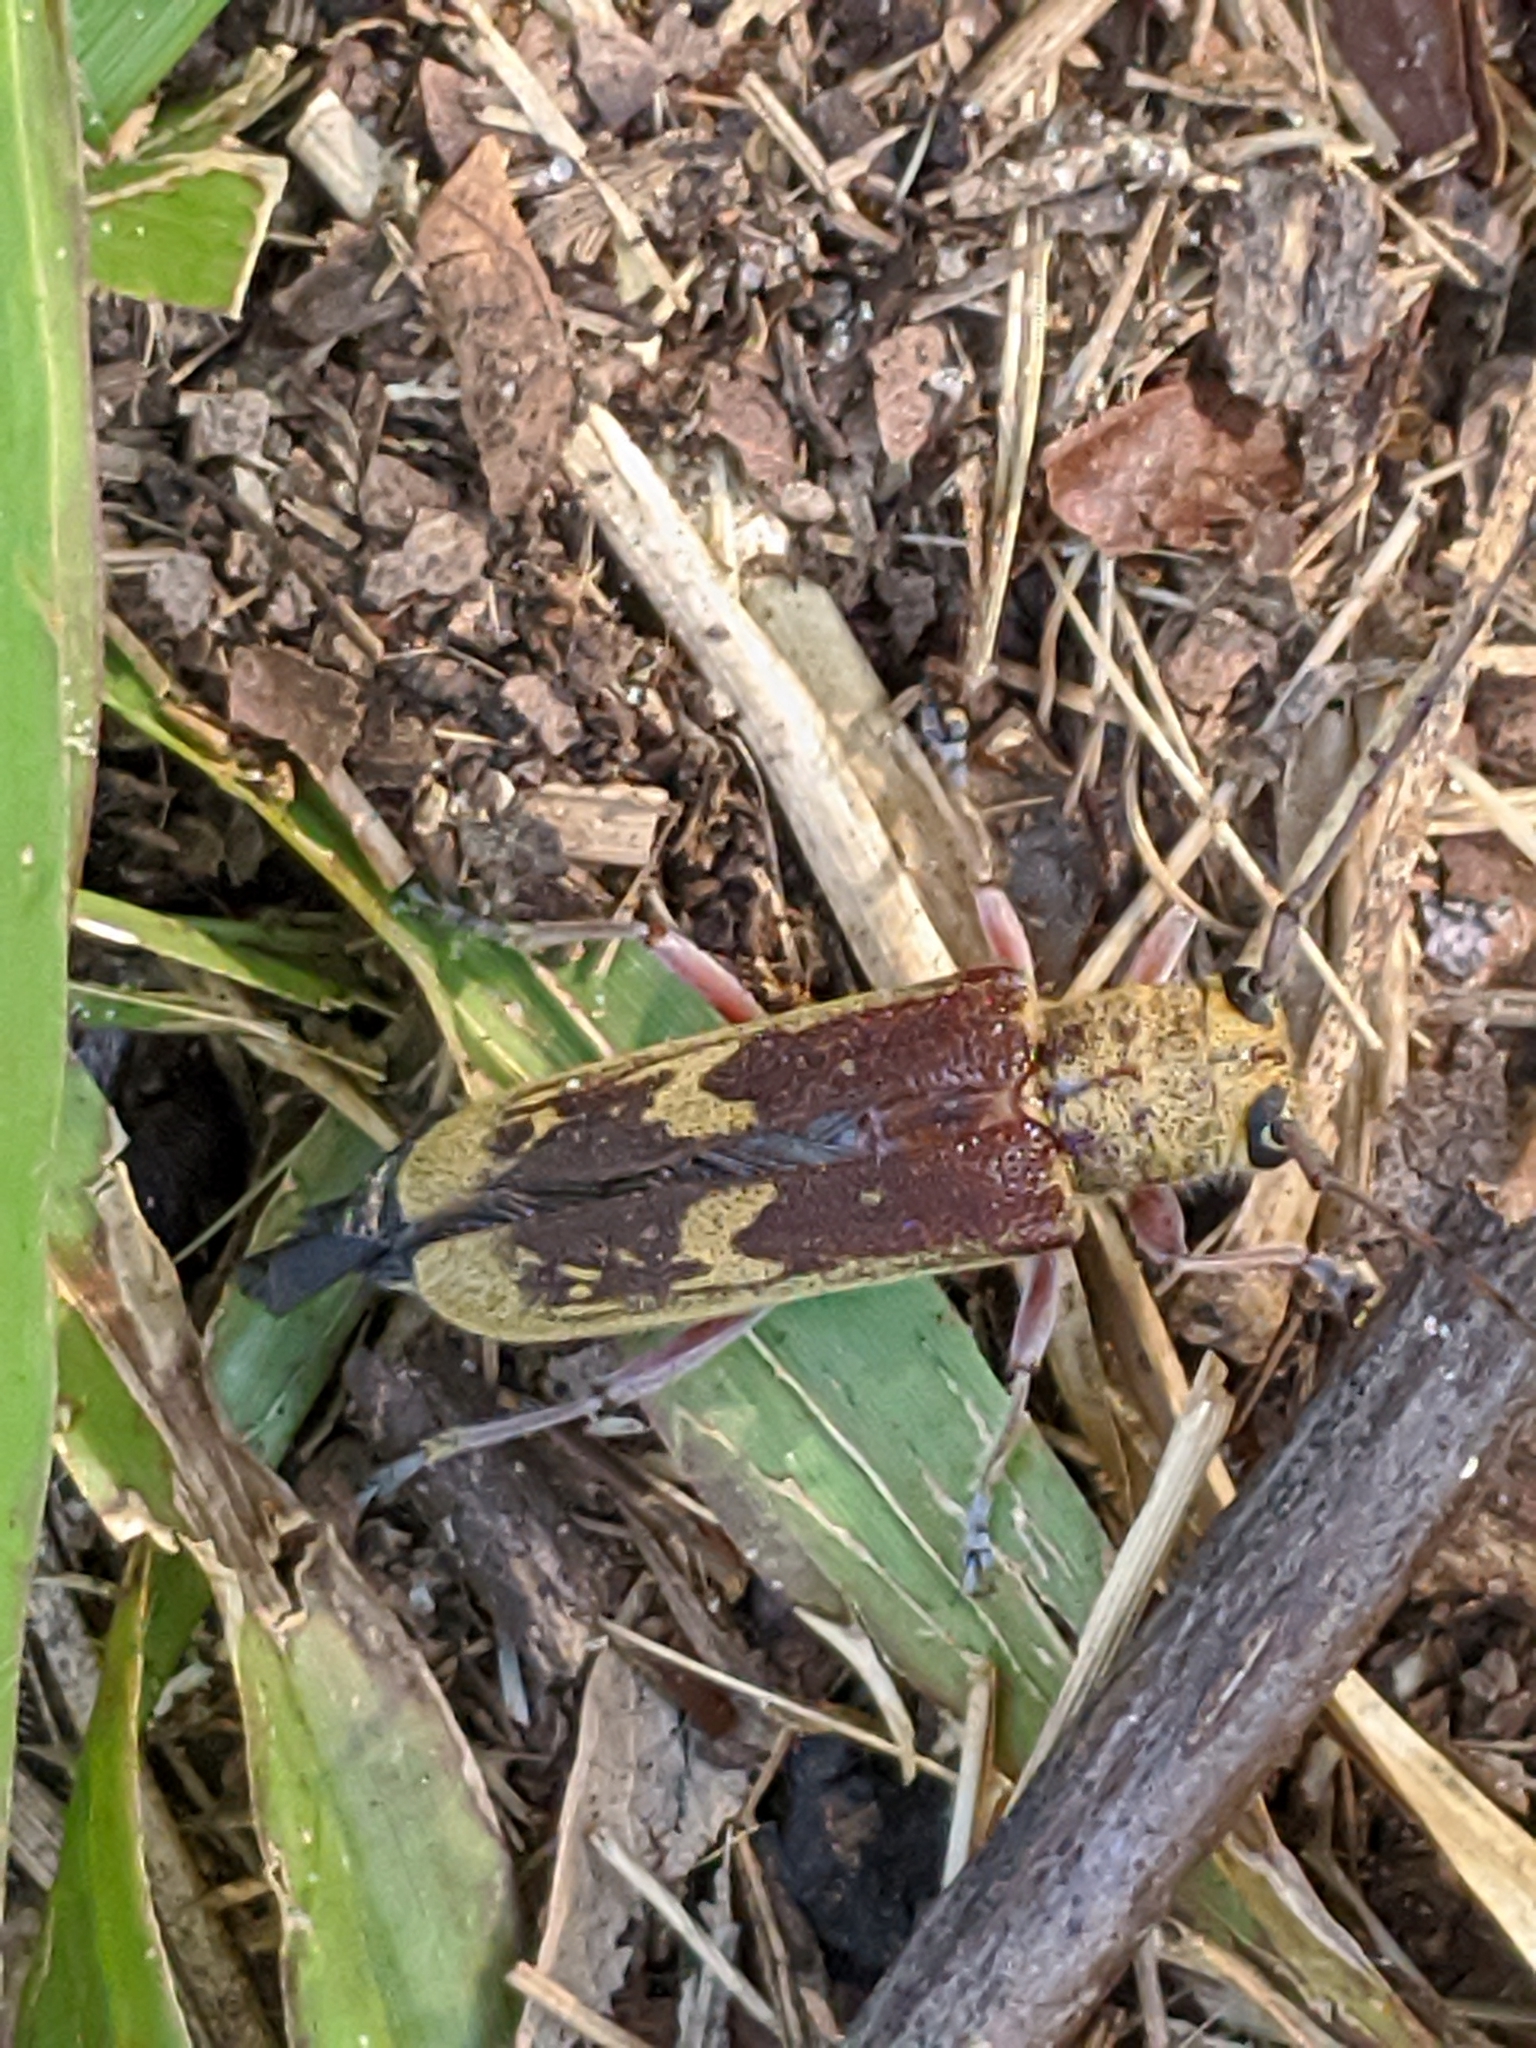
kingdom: Animalia
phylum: Arthropoda
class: Insecta
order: Coleoptera
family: Cerambycidae
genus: Saperda
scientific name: Saperda discoidea
